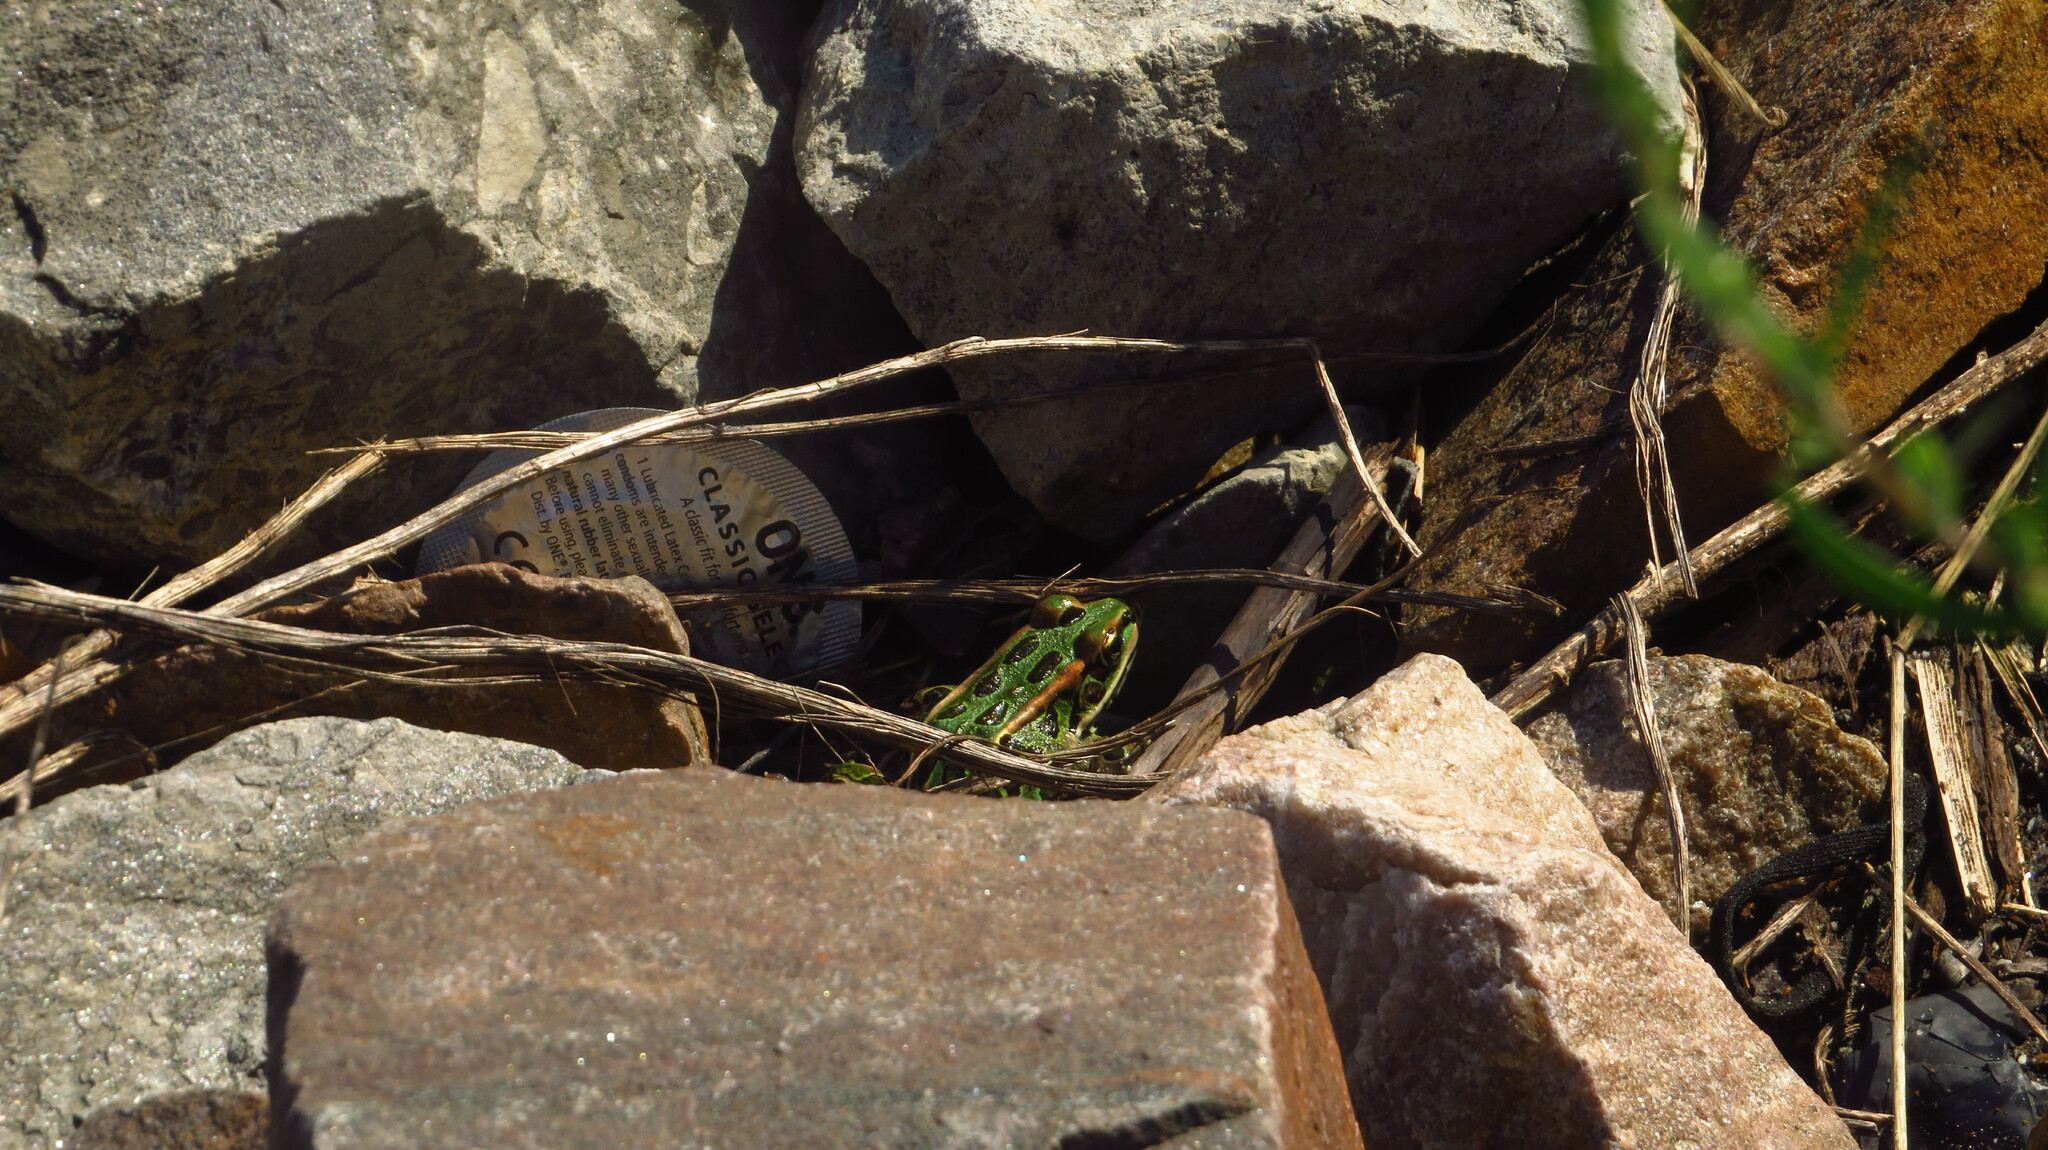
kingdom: Animalia
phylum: Chordata
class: Amphibia
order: Anura
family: Ranidae
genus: Lithobates
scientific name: Lithobates pipiens
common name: Northern leopard frog
